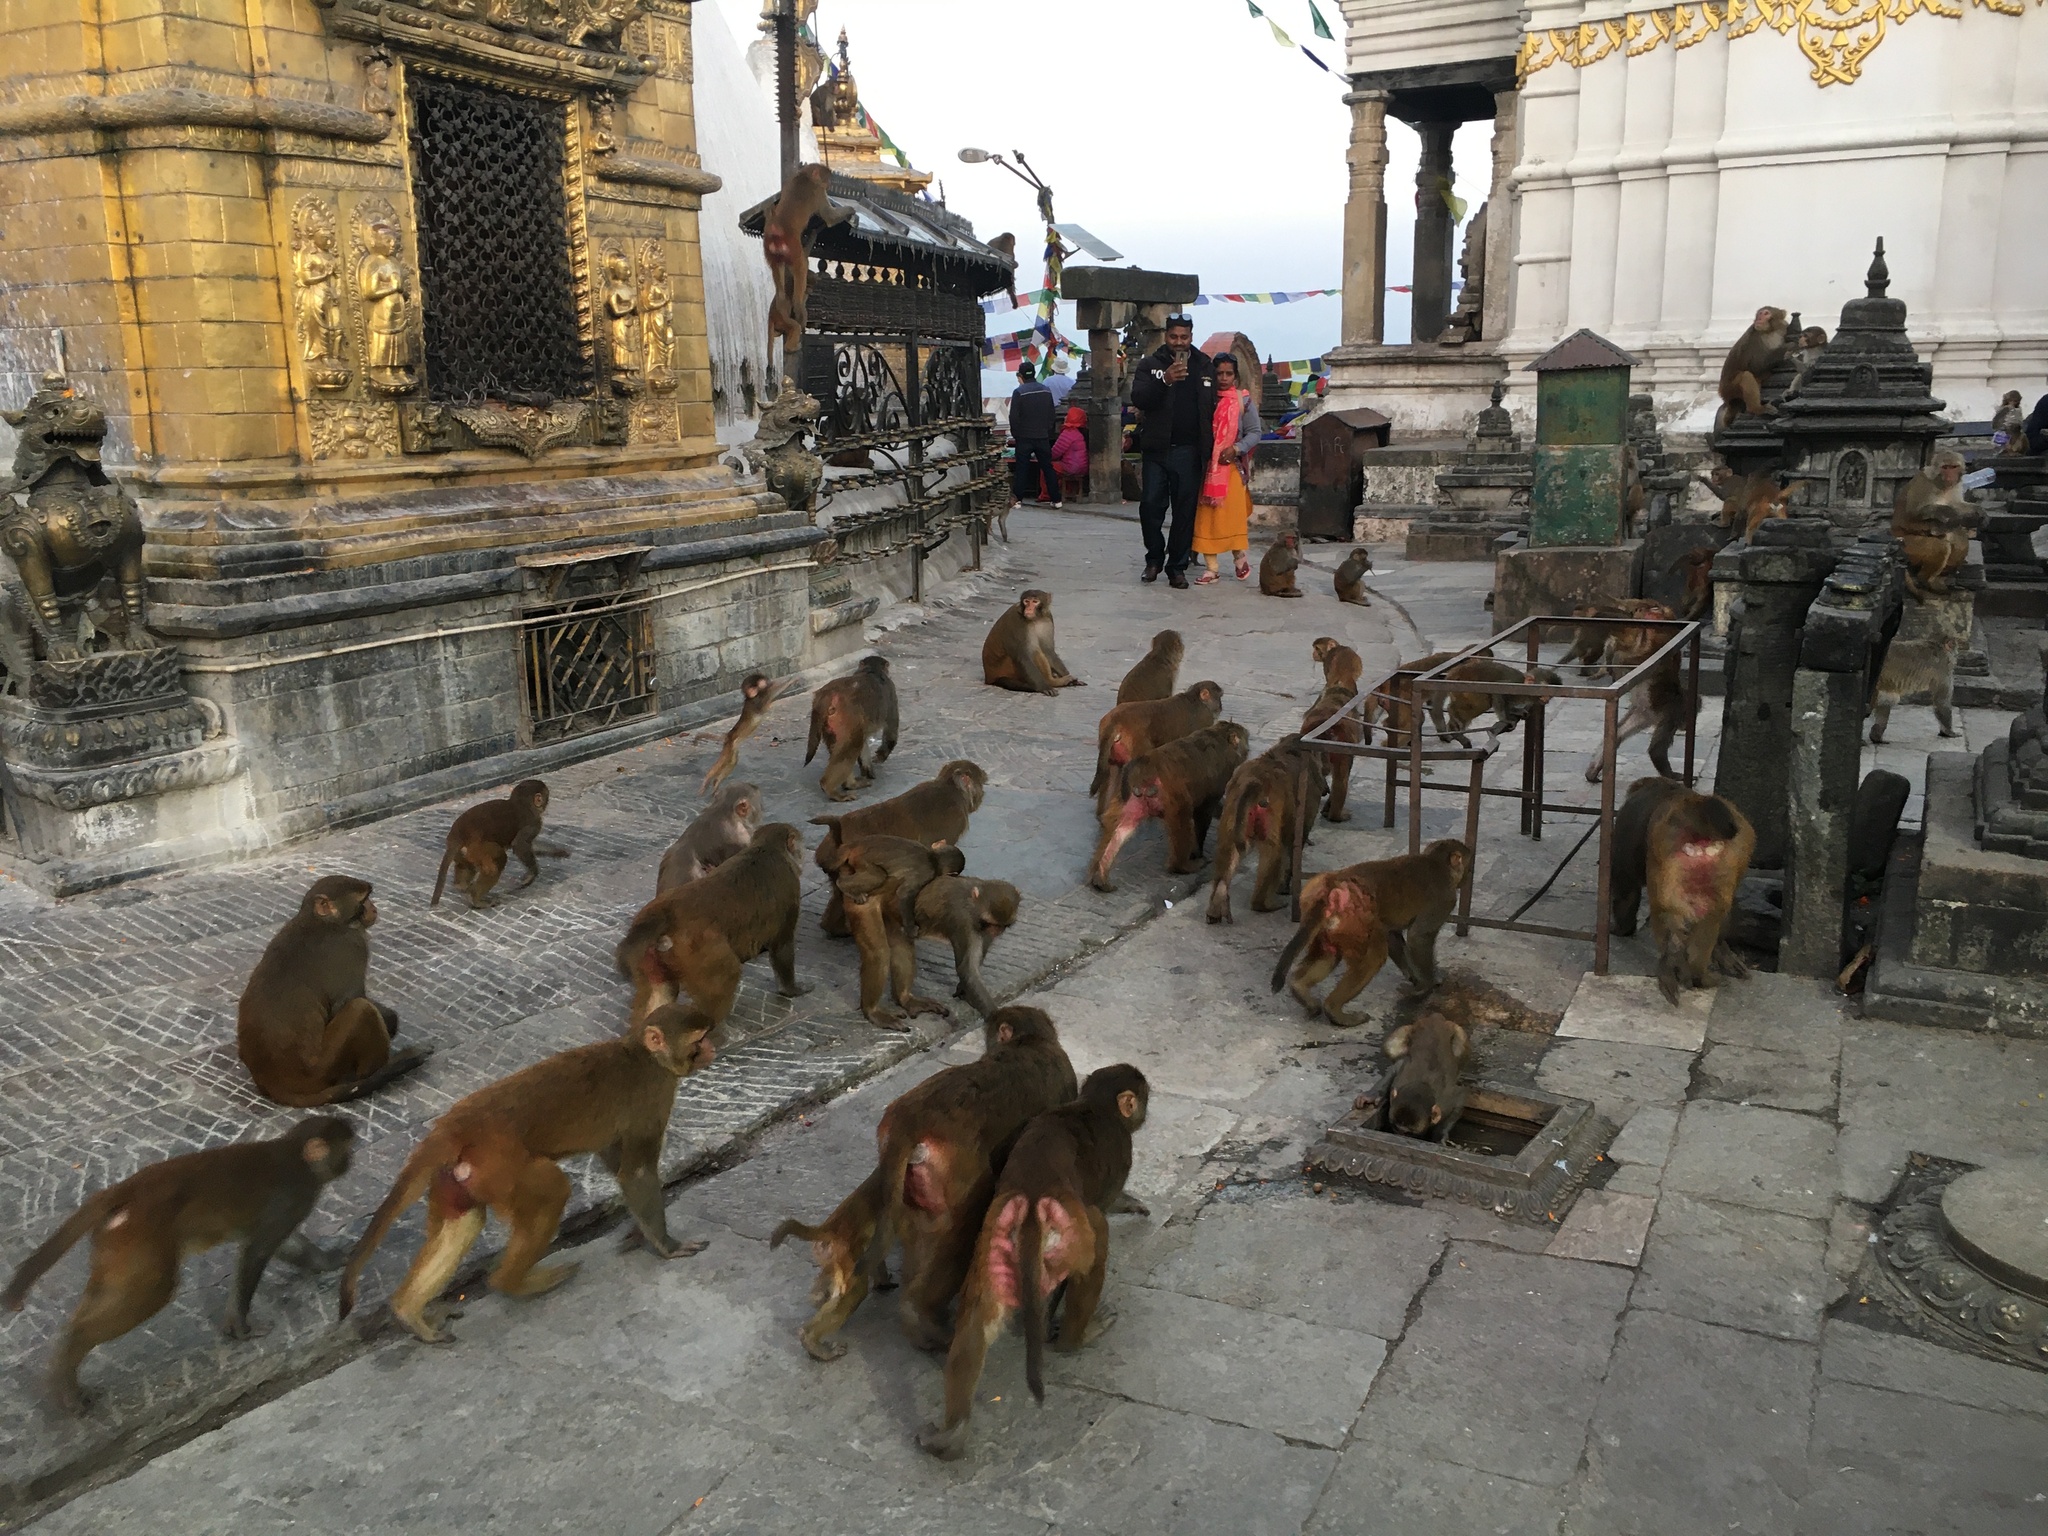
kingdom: Animalia
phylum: Chordata
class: Mammalia
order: Primates
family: Cercopithecidae
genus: Macaca
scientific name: Macaca mulatta
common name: Rhesus monkey
